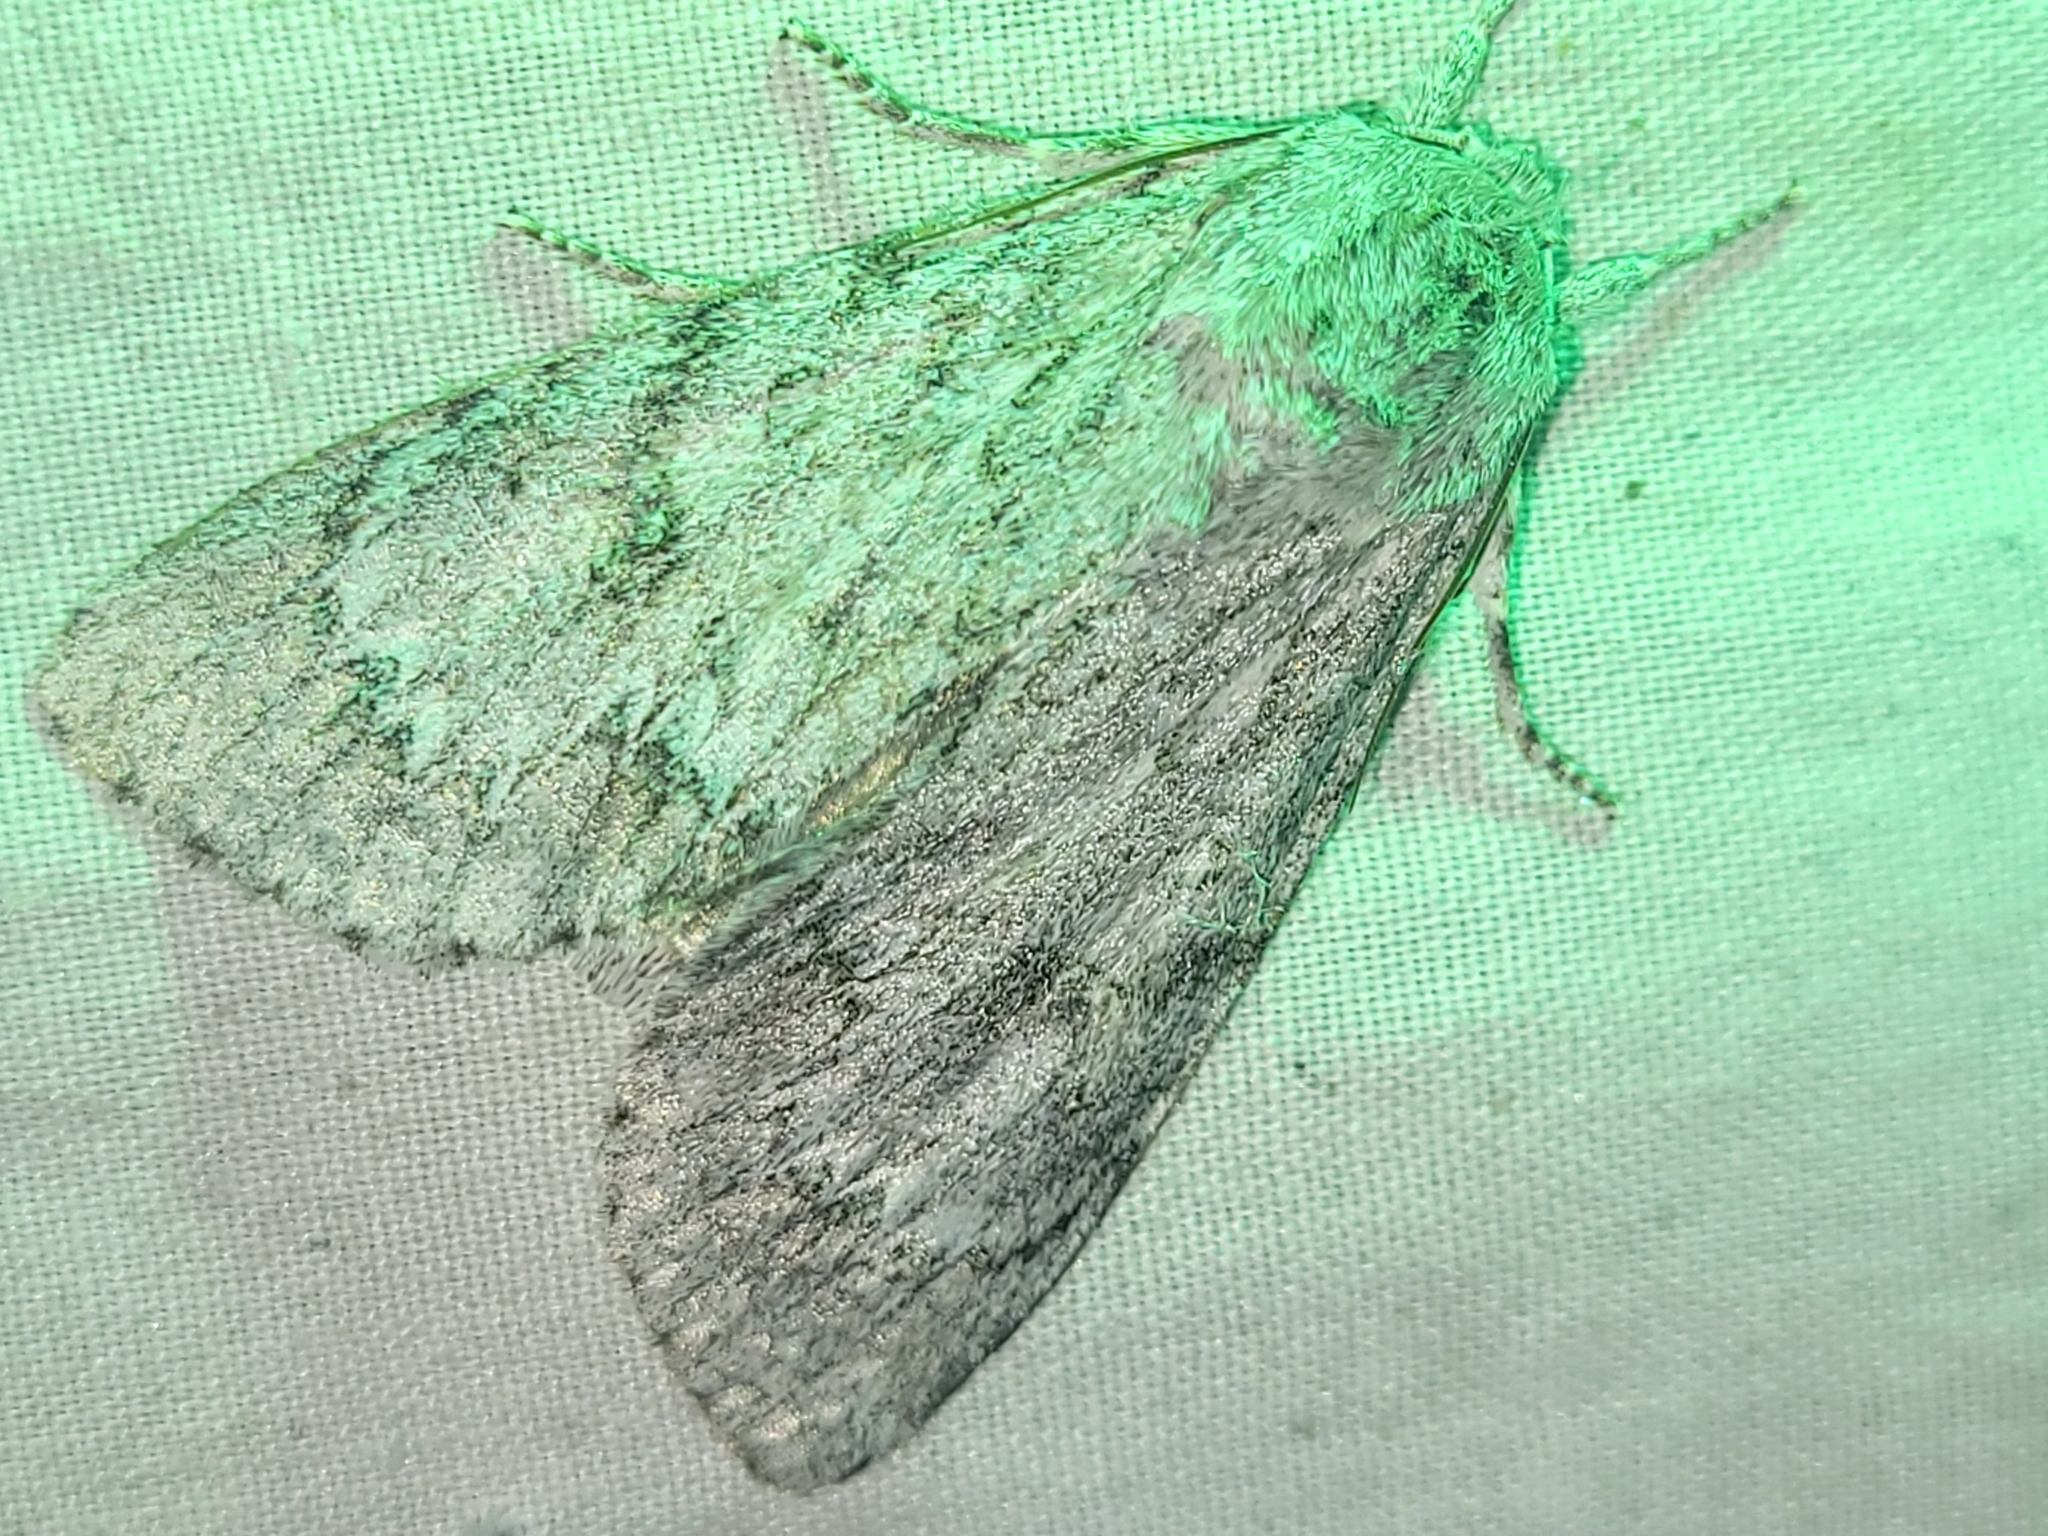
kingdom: Animalia
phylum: Arthropoda
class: Insecta
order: Lepidoptera
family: Noctuidae
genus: Acronicta
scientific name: Acronicta americana
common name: American dagger
